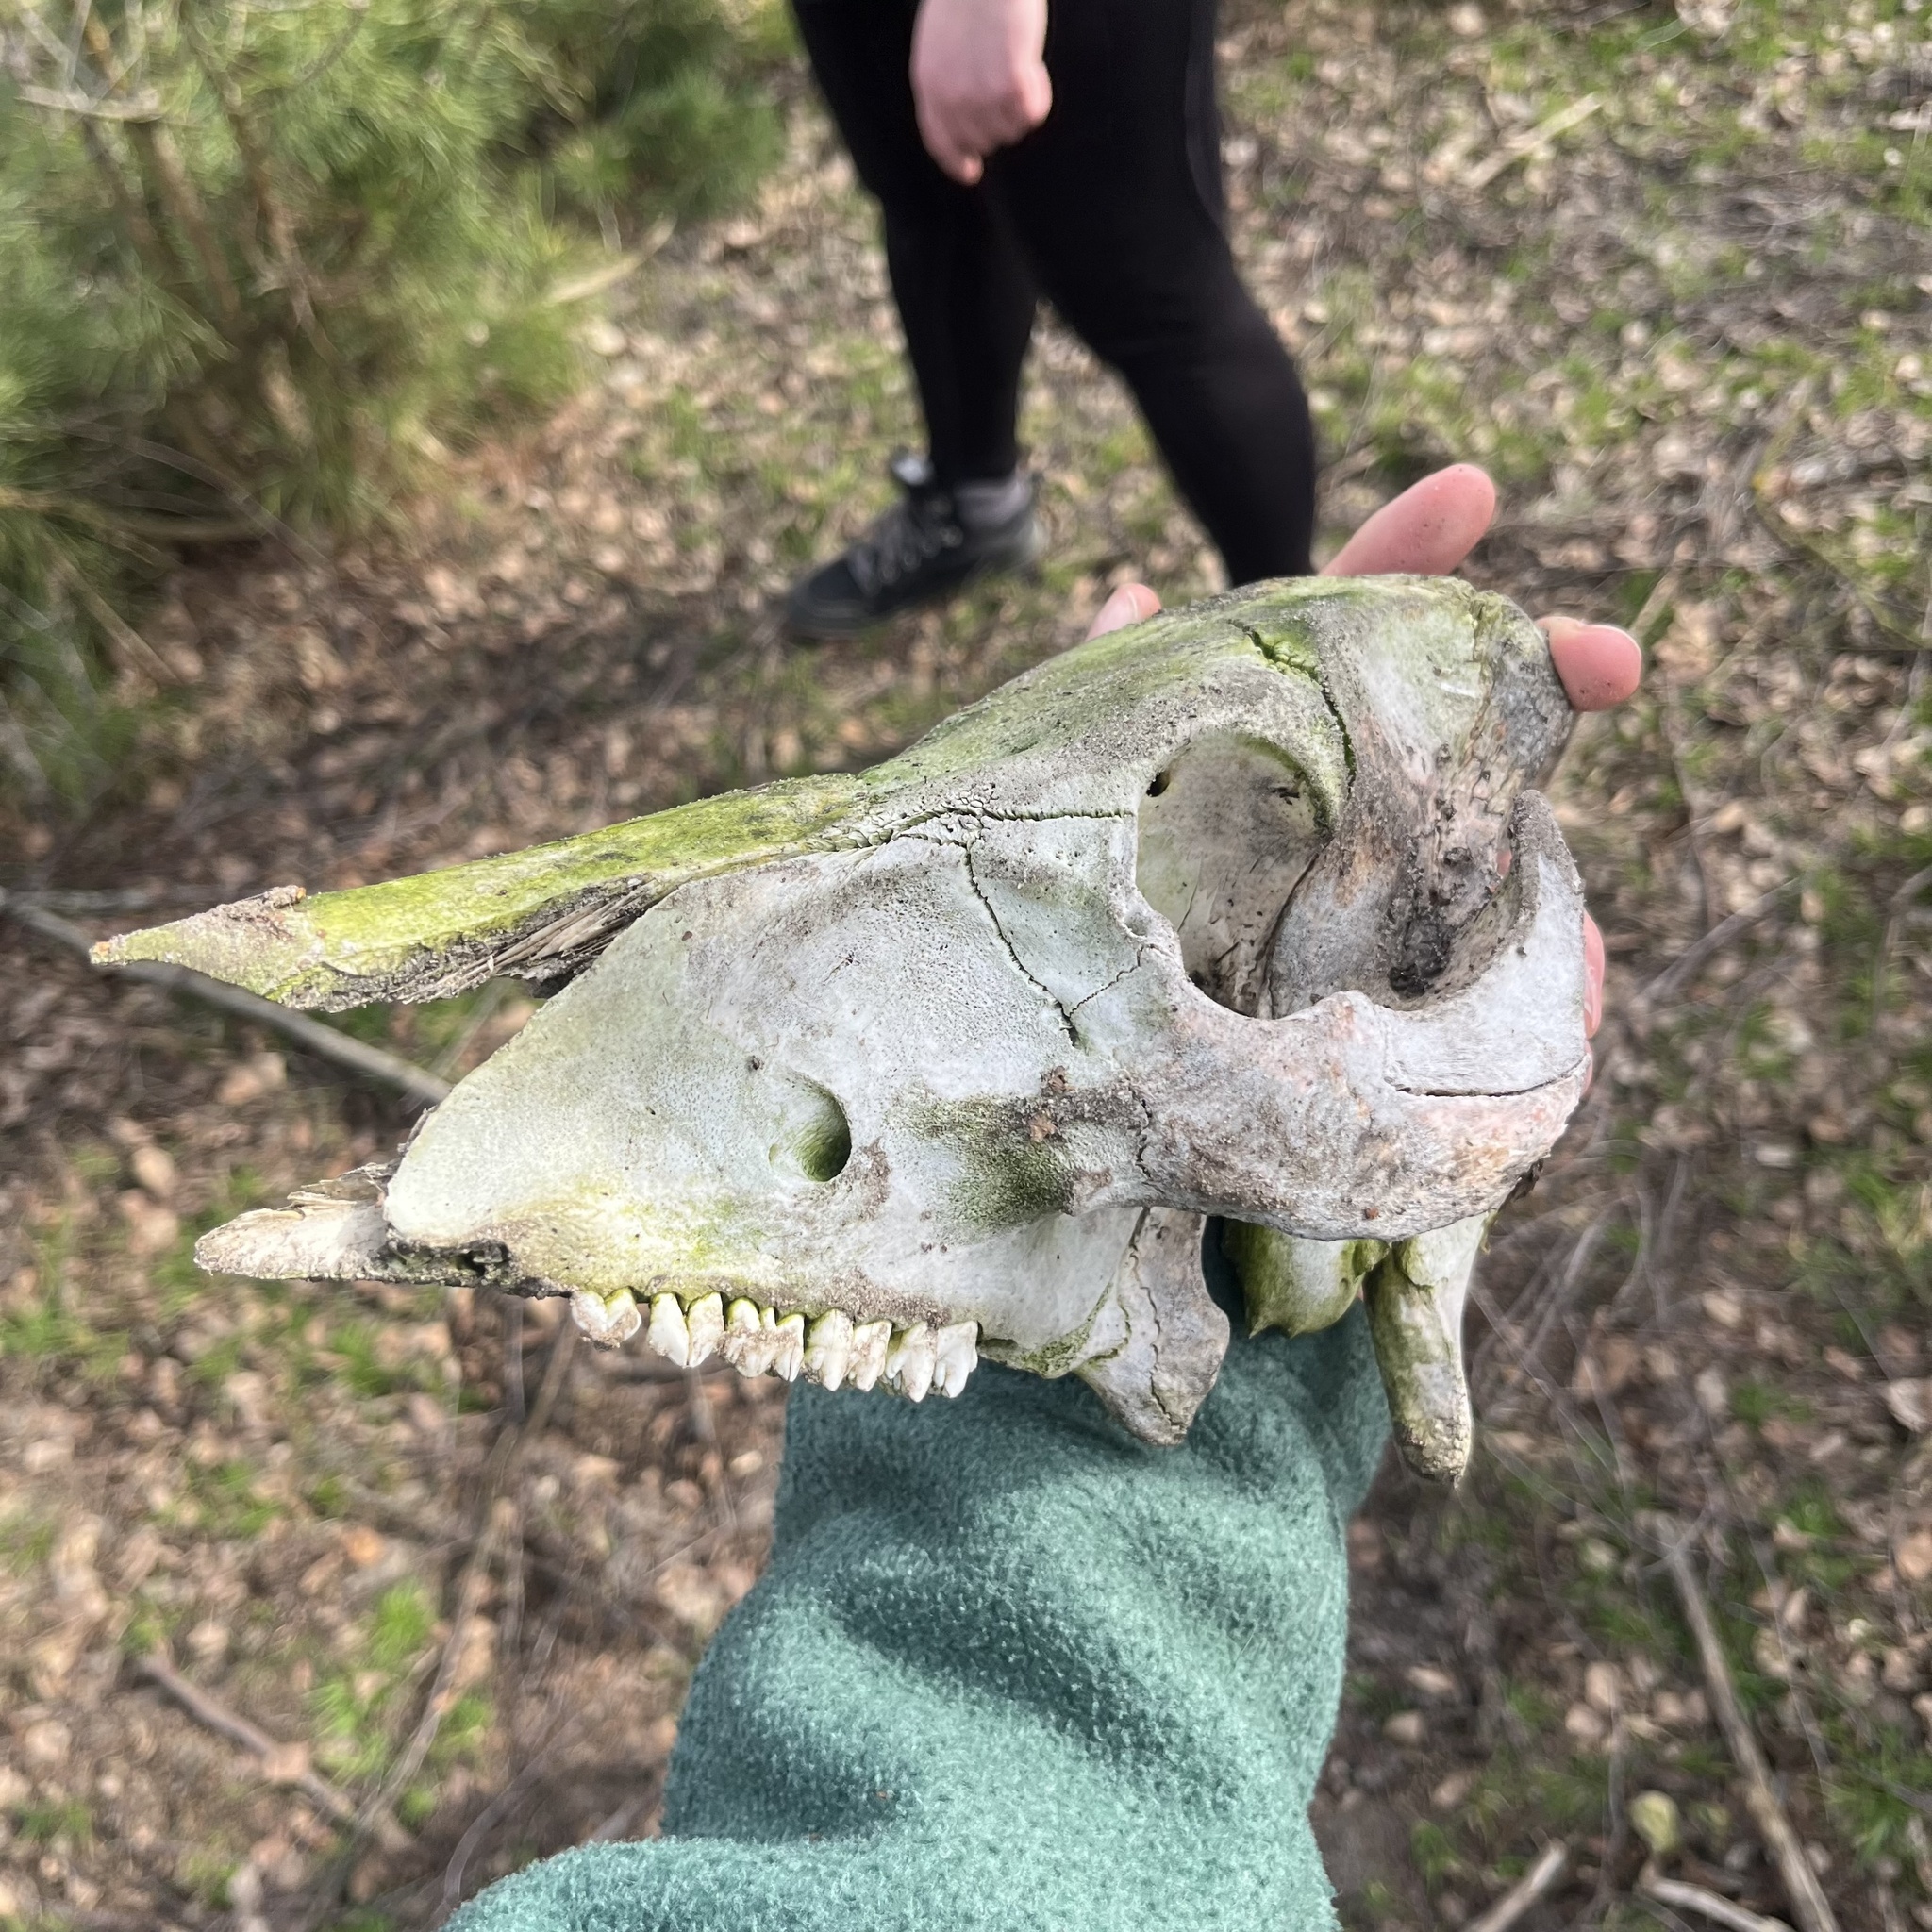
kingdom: Animalia
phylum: Chordata
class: Mammalia
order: Artiodactyla
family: Suidae
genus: Sus
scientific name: Sus scrofa
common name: Wild boar
